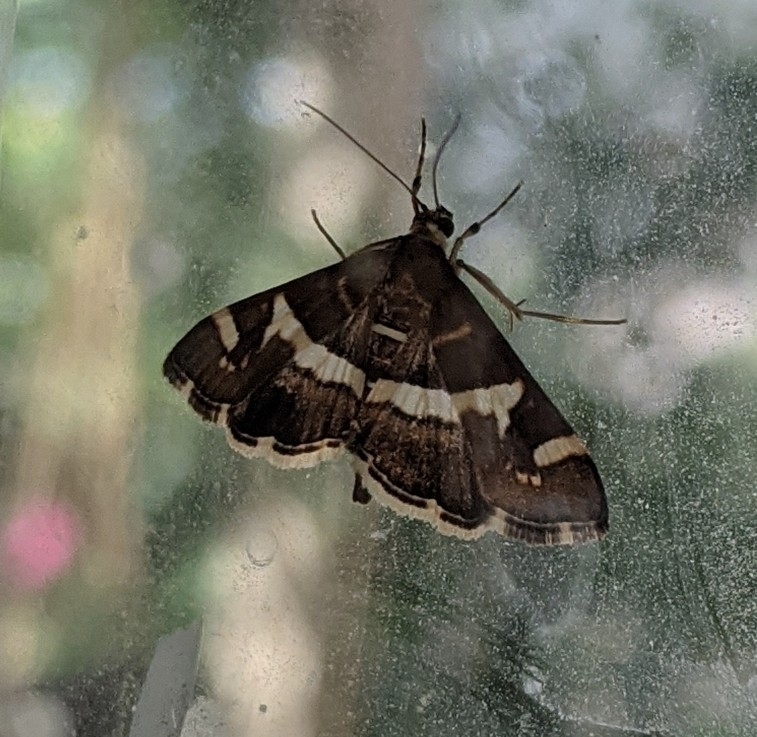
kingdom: Animalia
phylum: Arthropoda
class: Insecta
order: Lepidoptera
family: Crambidae
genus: Spoladea
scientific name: Spoladea recurvalis
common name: Beet webworm moth
